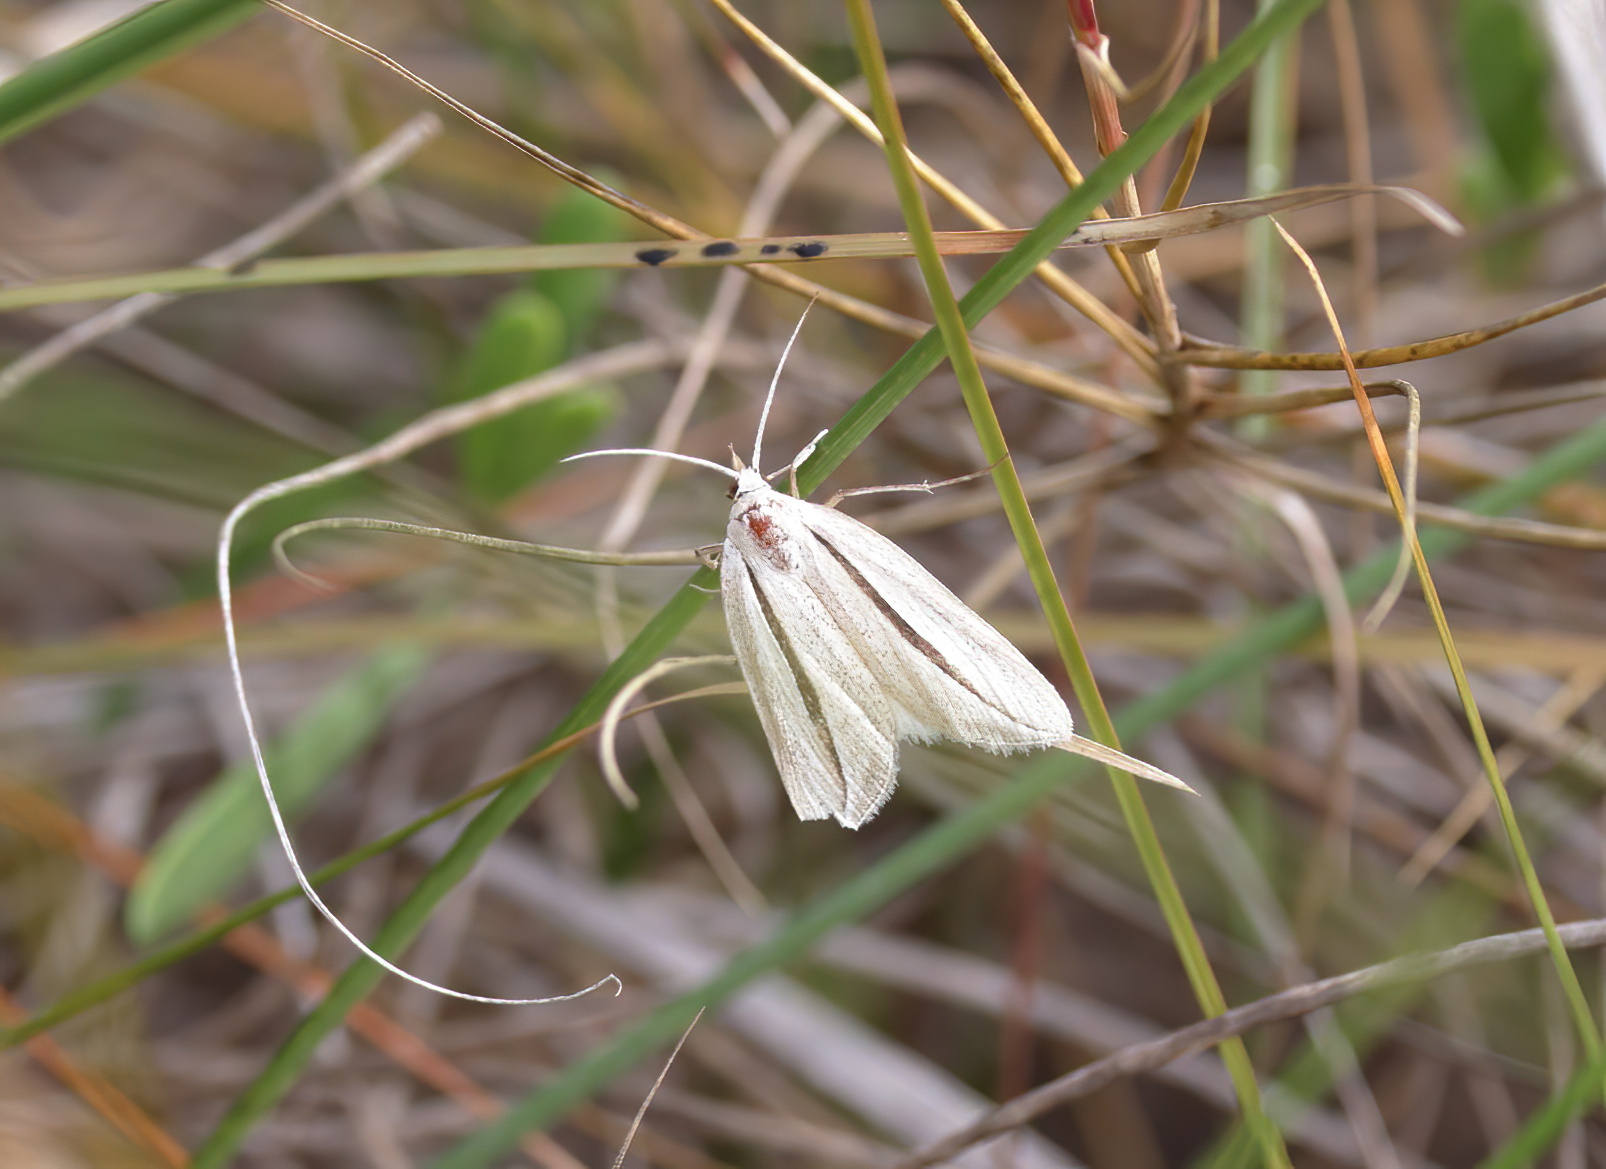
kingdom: Animalia
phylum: Arthropoda
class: Insecta
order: Lepidoptera
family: Erebidae
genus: Doryodes
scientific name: Doryodes latistriga
